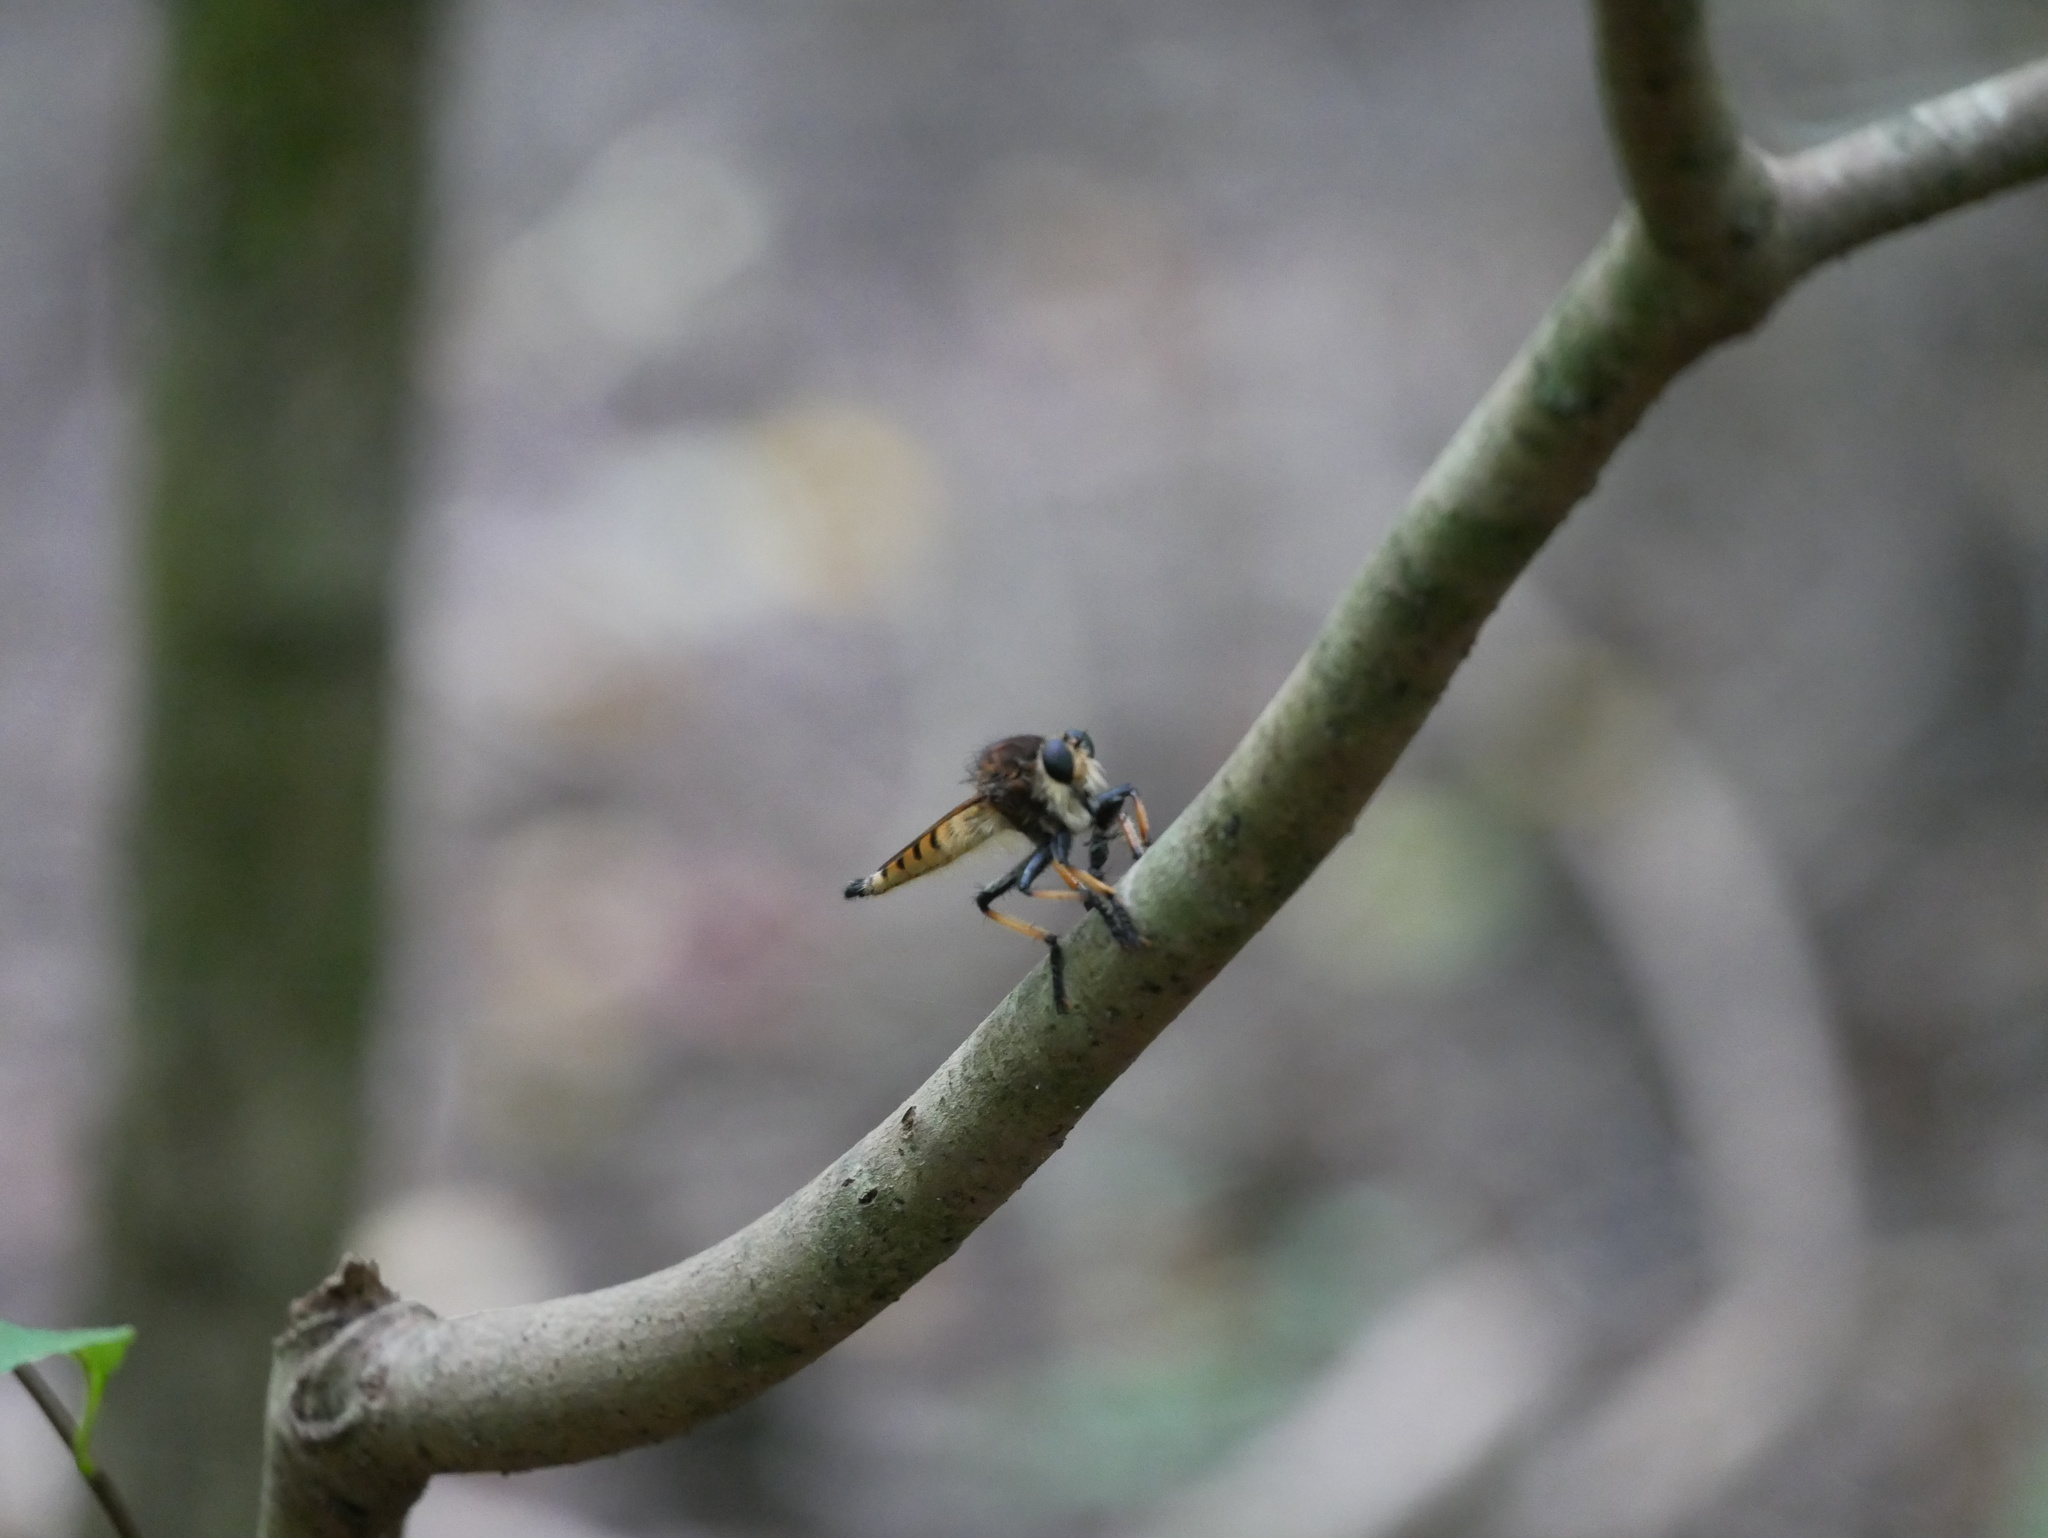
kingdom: Animalia
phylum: Arthropoda
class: Insecta
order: Diptera
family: Asilidae
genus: Promachus
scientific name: Promachus rufipes
